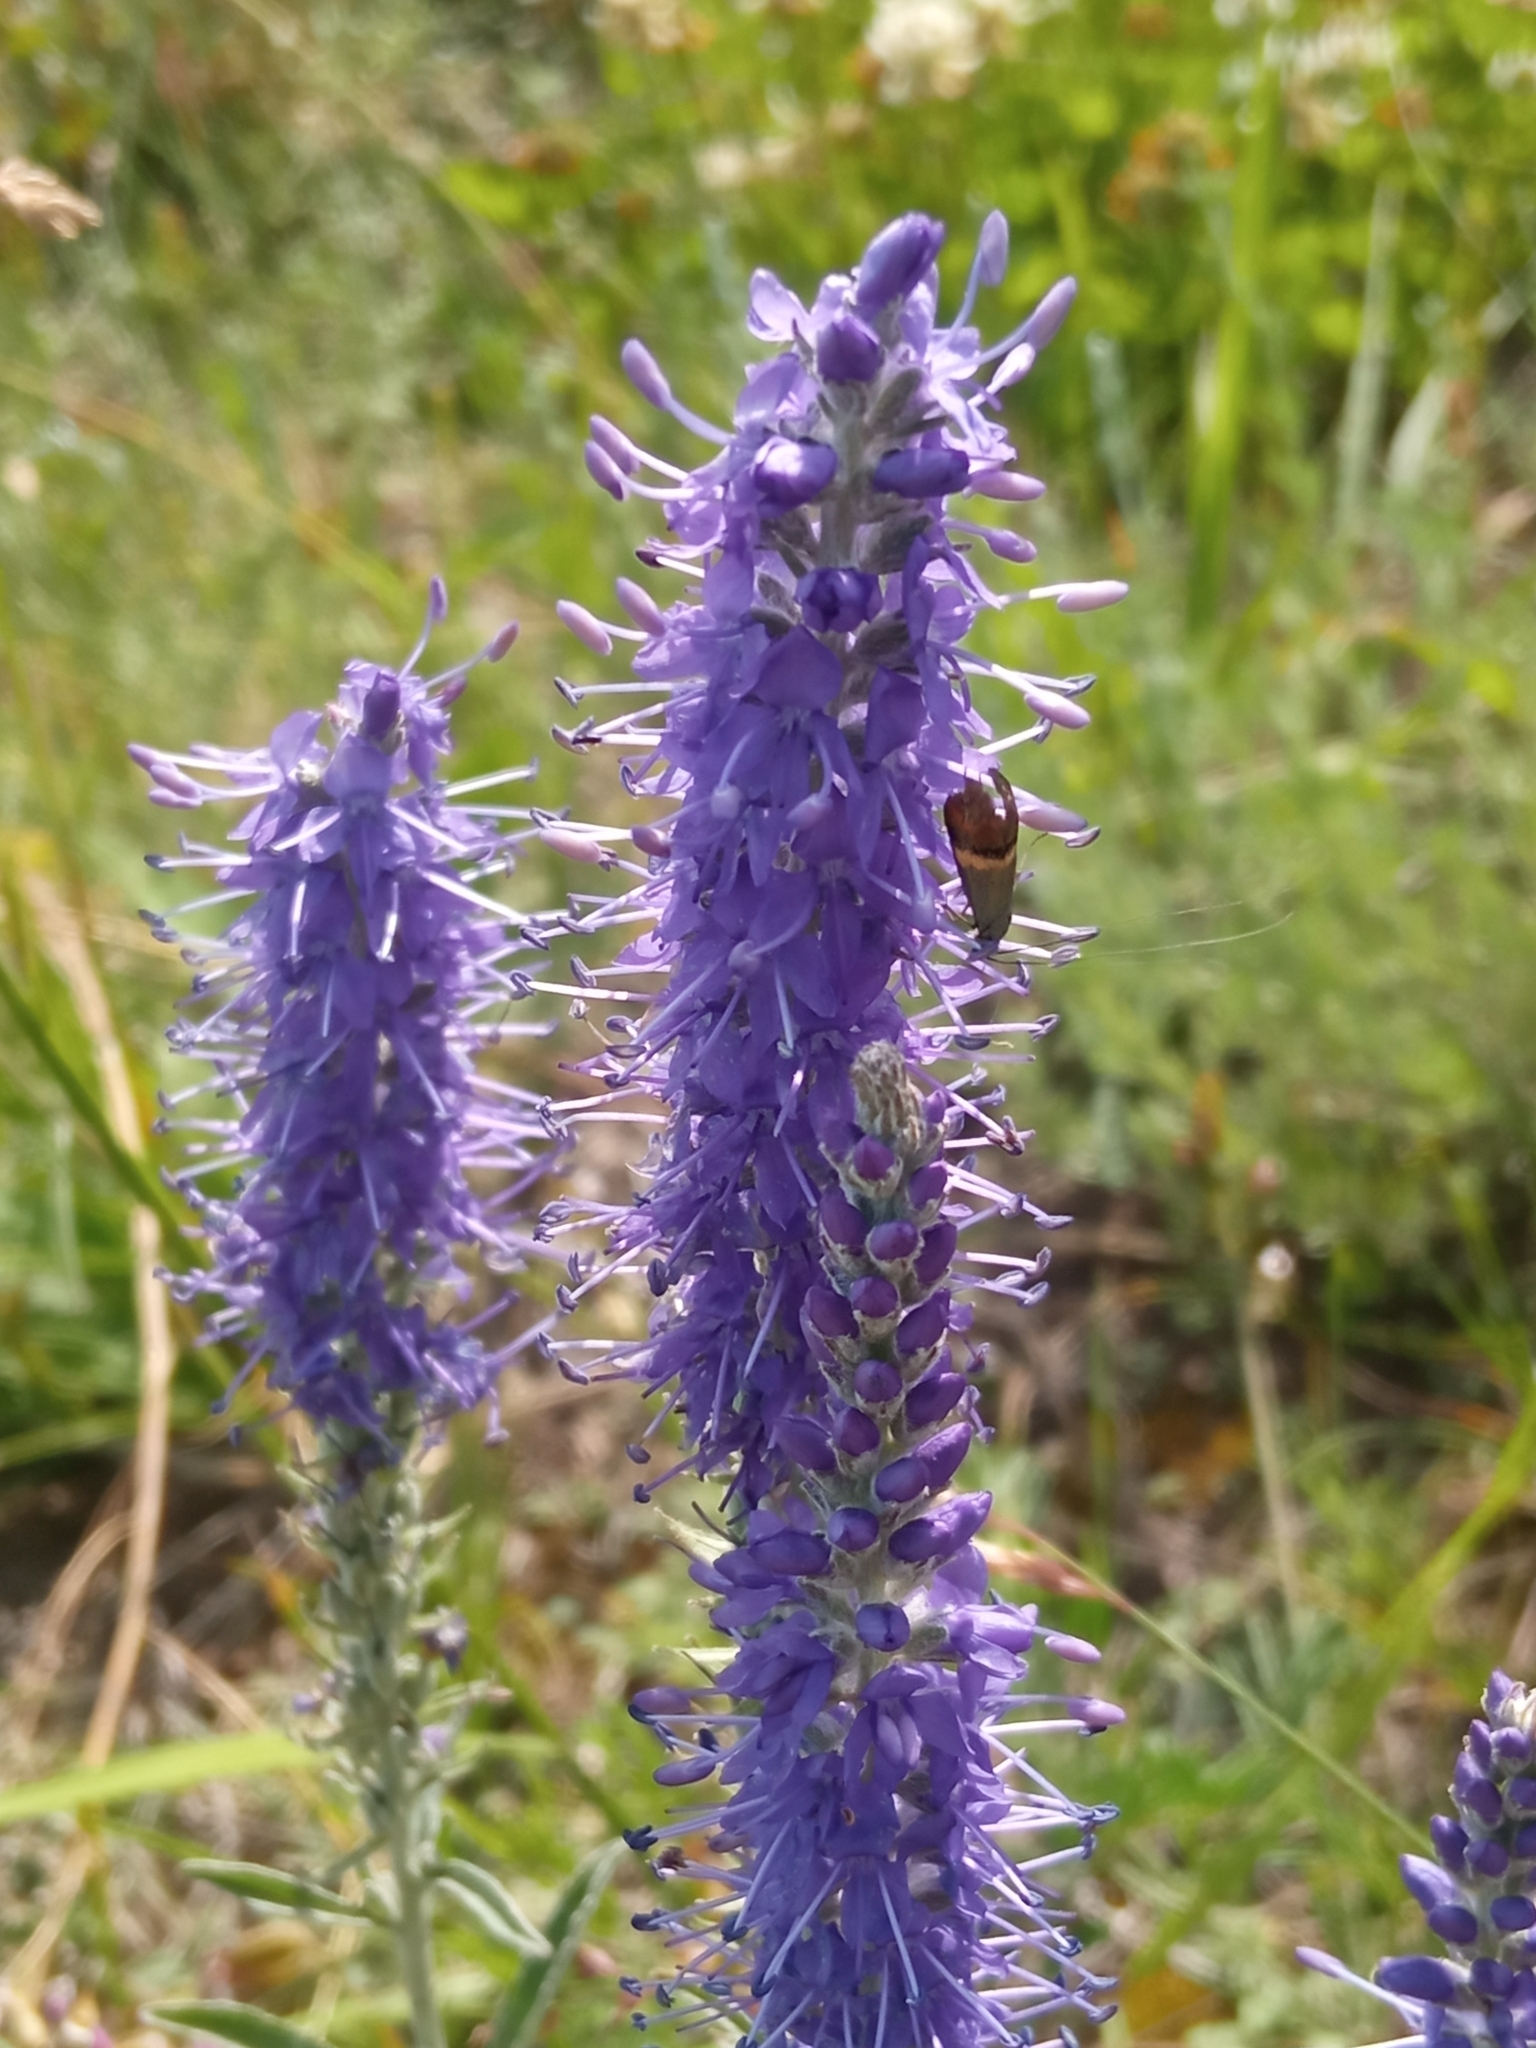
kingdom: Plantae
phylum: Tracheophyta
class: Magnoliopsida
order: Lamiales
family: Plantaginaceae
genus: Veronica
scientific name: Veronica incana
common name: Silver speedwell
